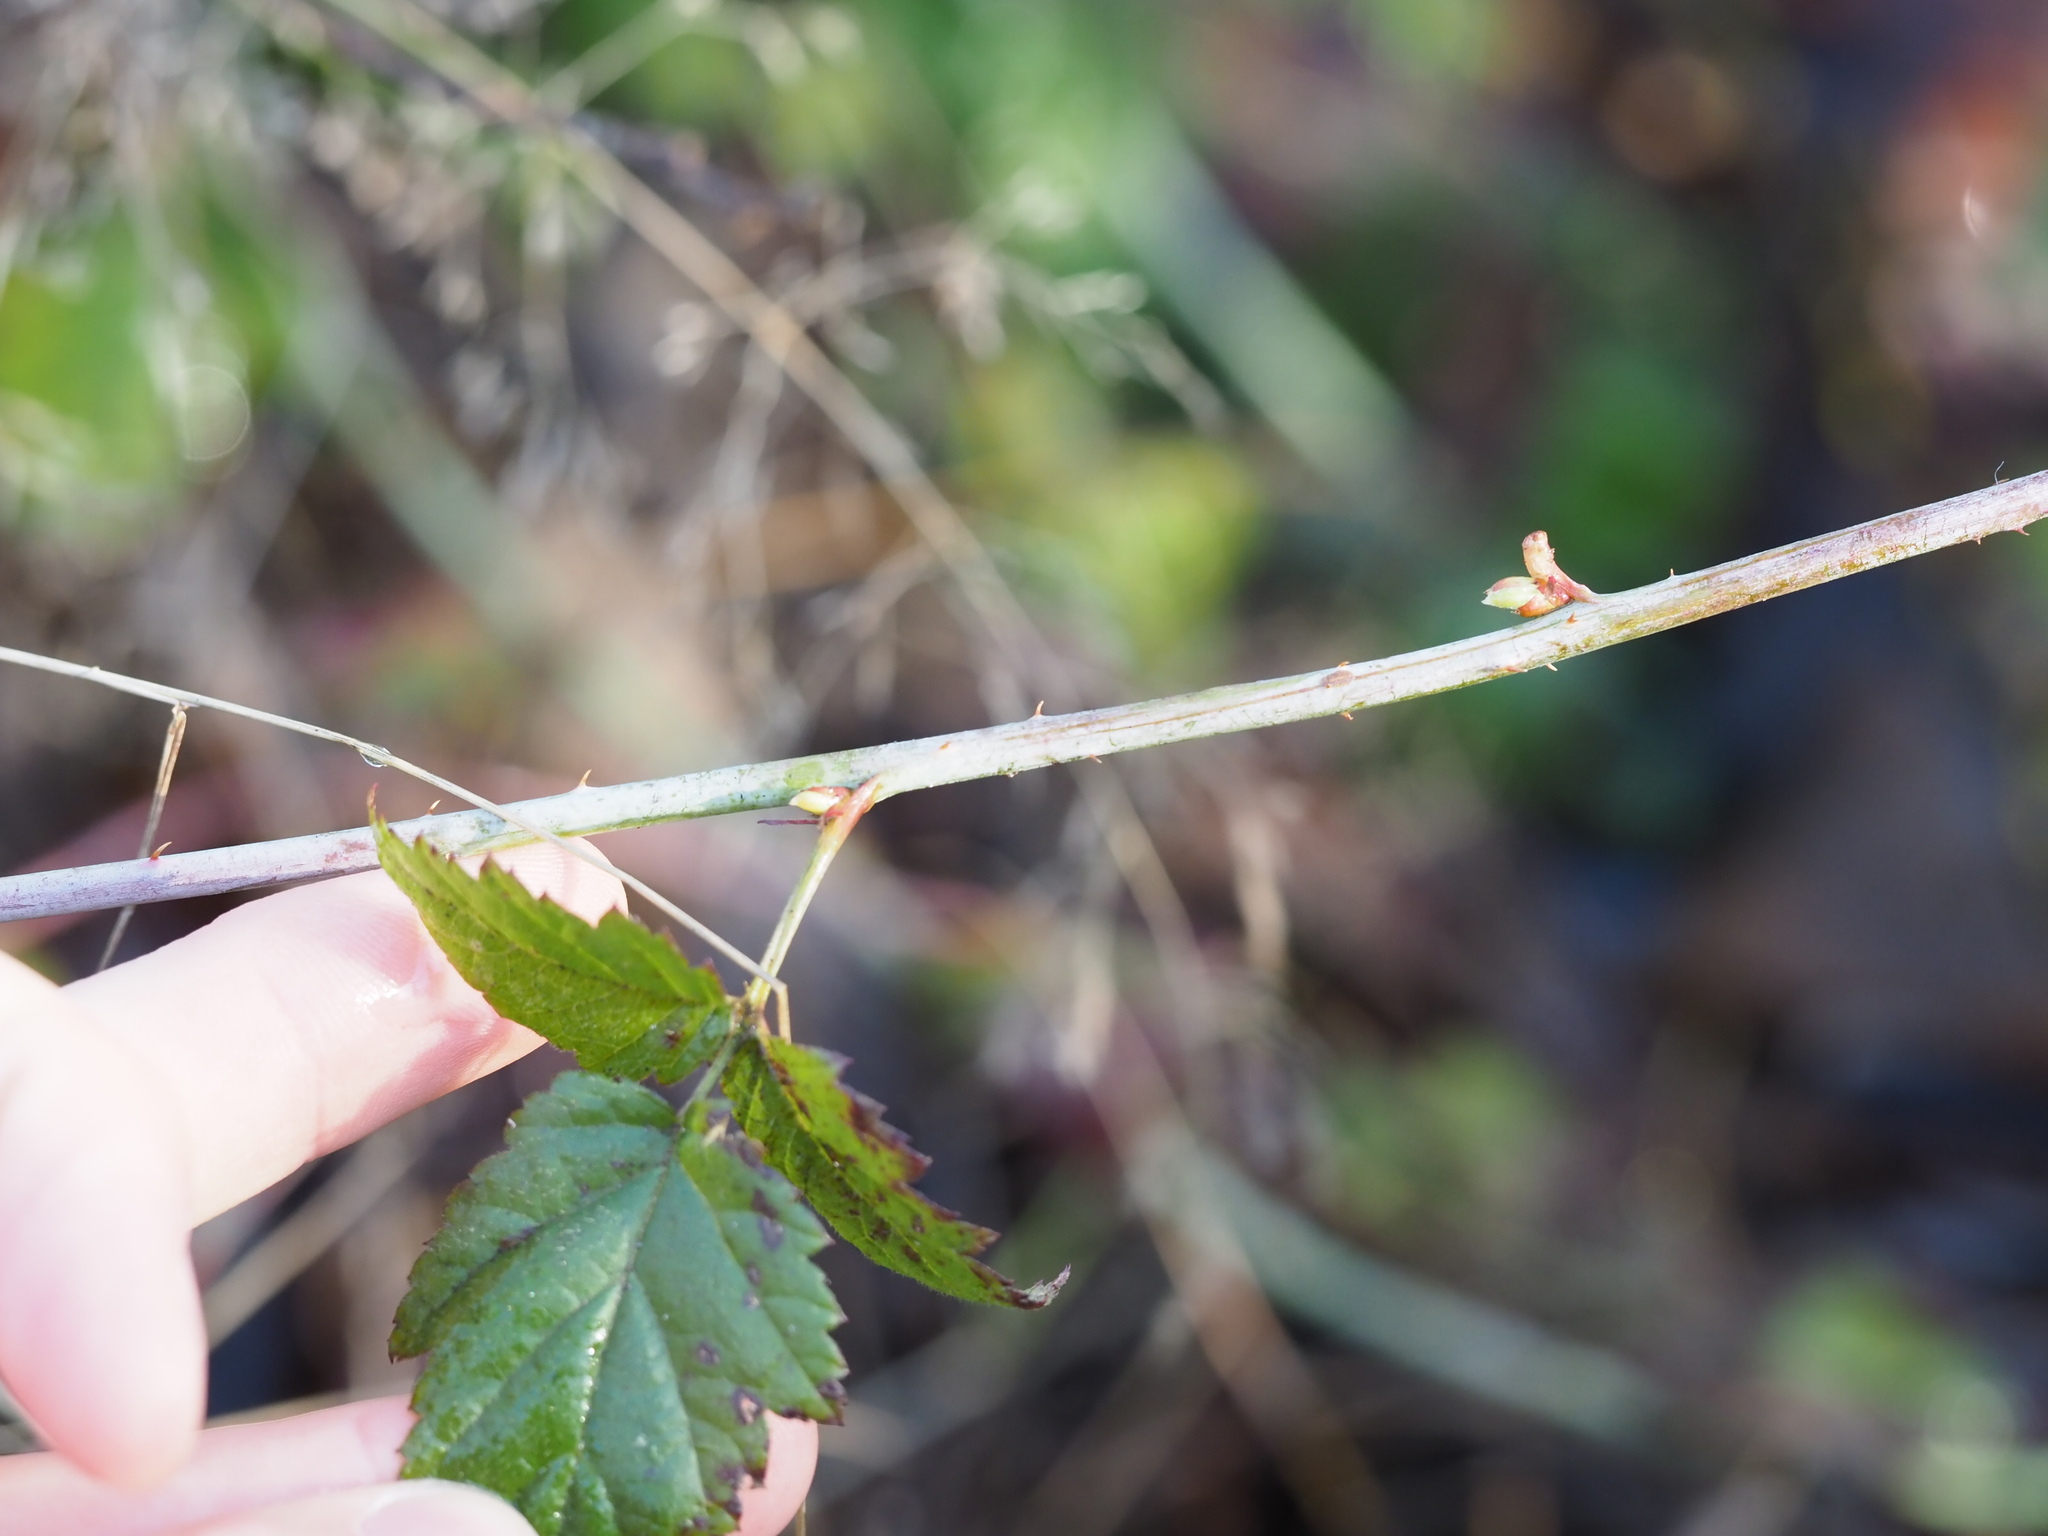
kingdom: Plantae
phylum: Tracheophyta
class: Magnoliopsida
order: Rosales
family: Rosaceae
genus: Rubus
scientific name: Rubus ursinus
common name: Pacific blackberry
